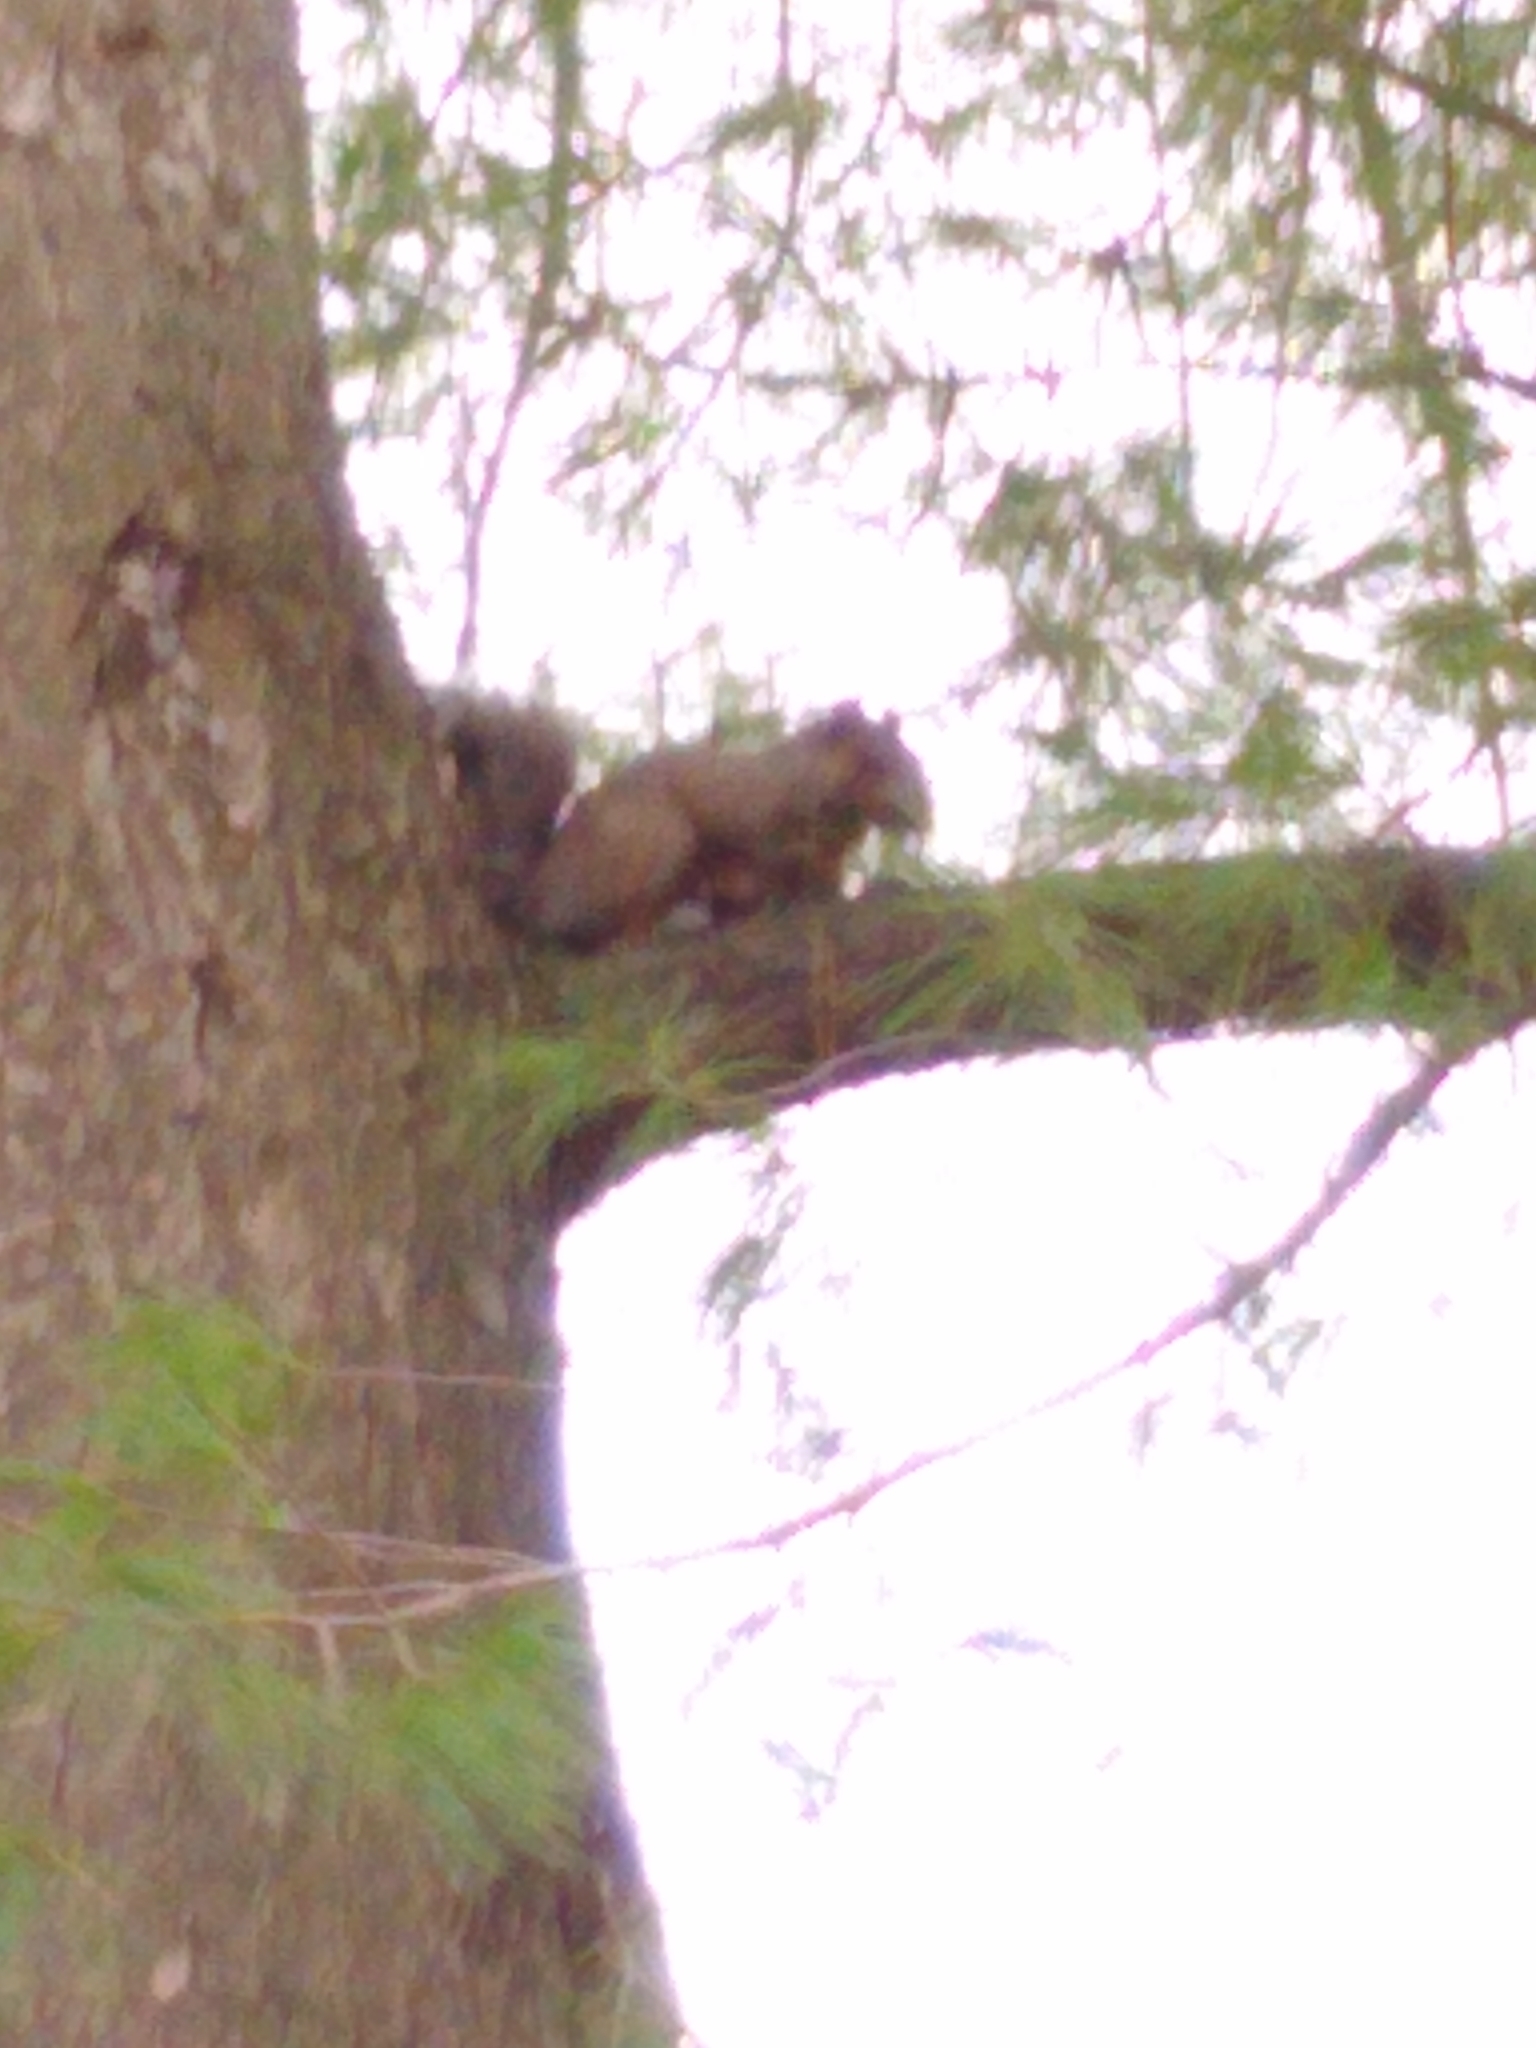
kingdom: Animalia
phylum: Chordata
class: Mammalia
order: Rodentia
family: Sciuridae
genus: Sciurus
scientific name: Sciurus carolinensis
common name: Eastern gray squirrel
